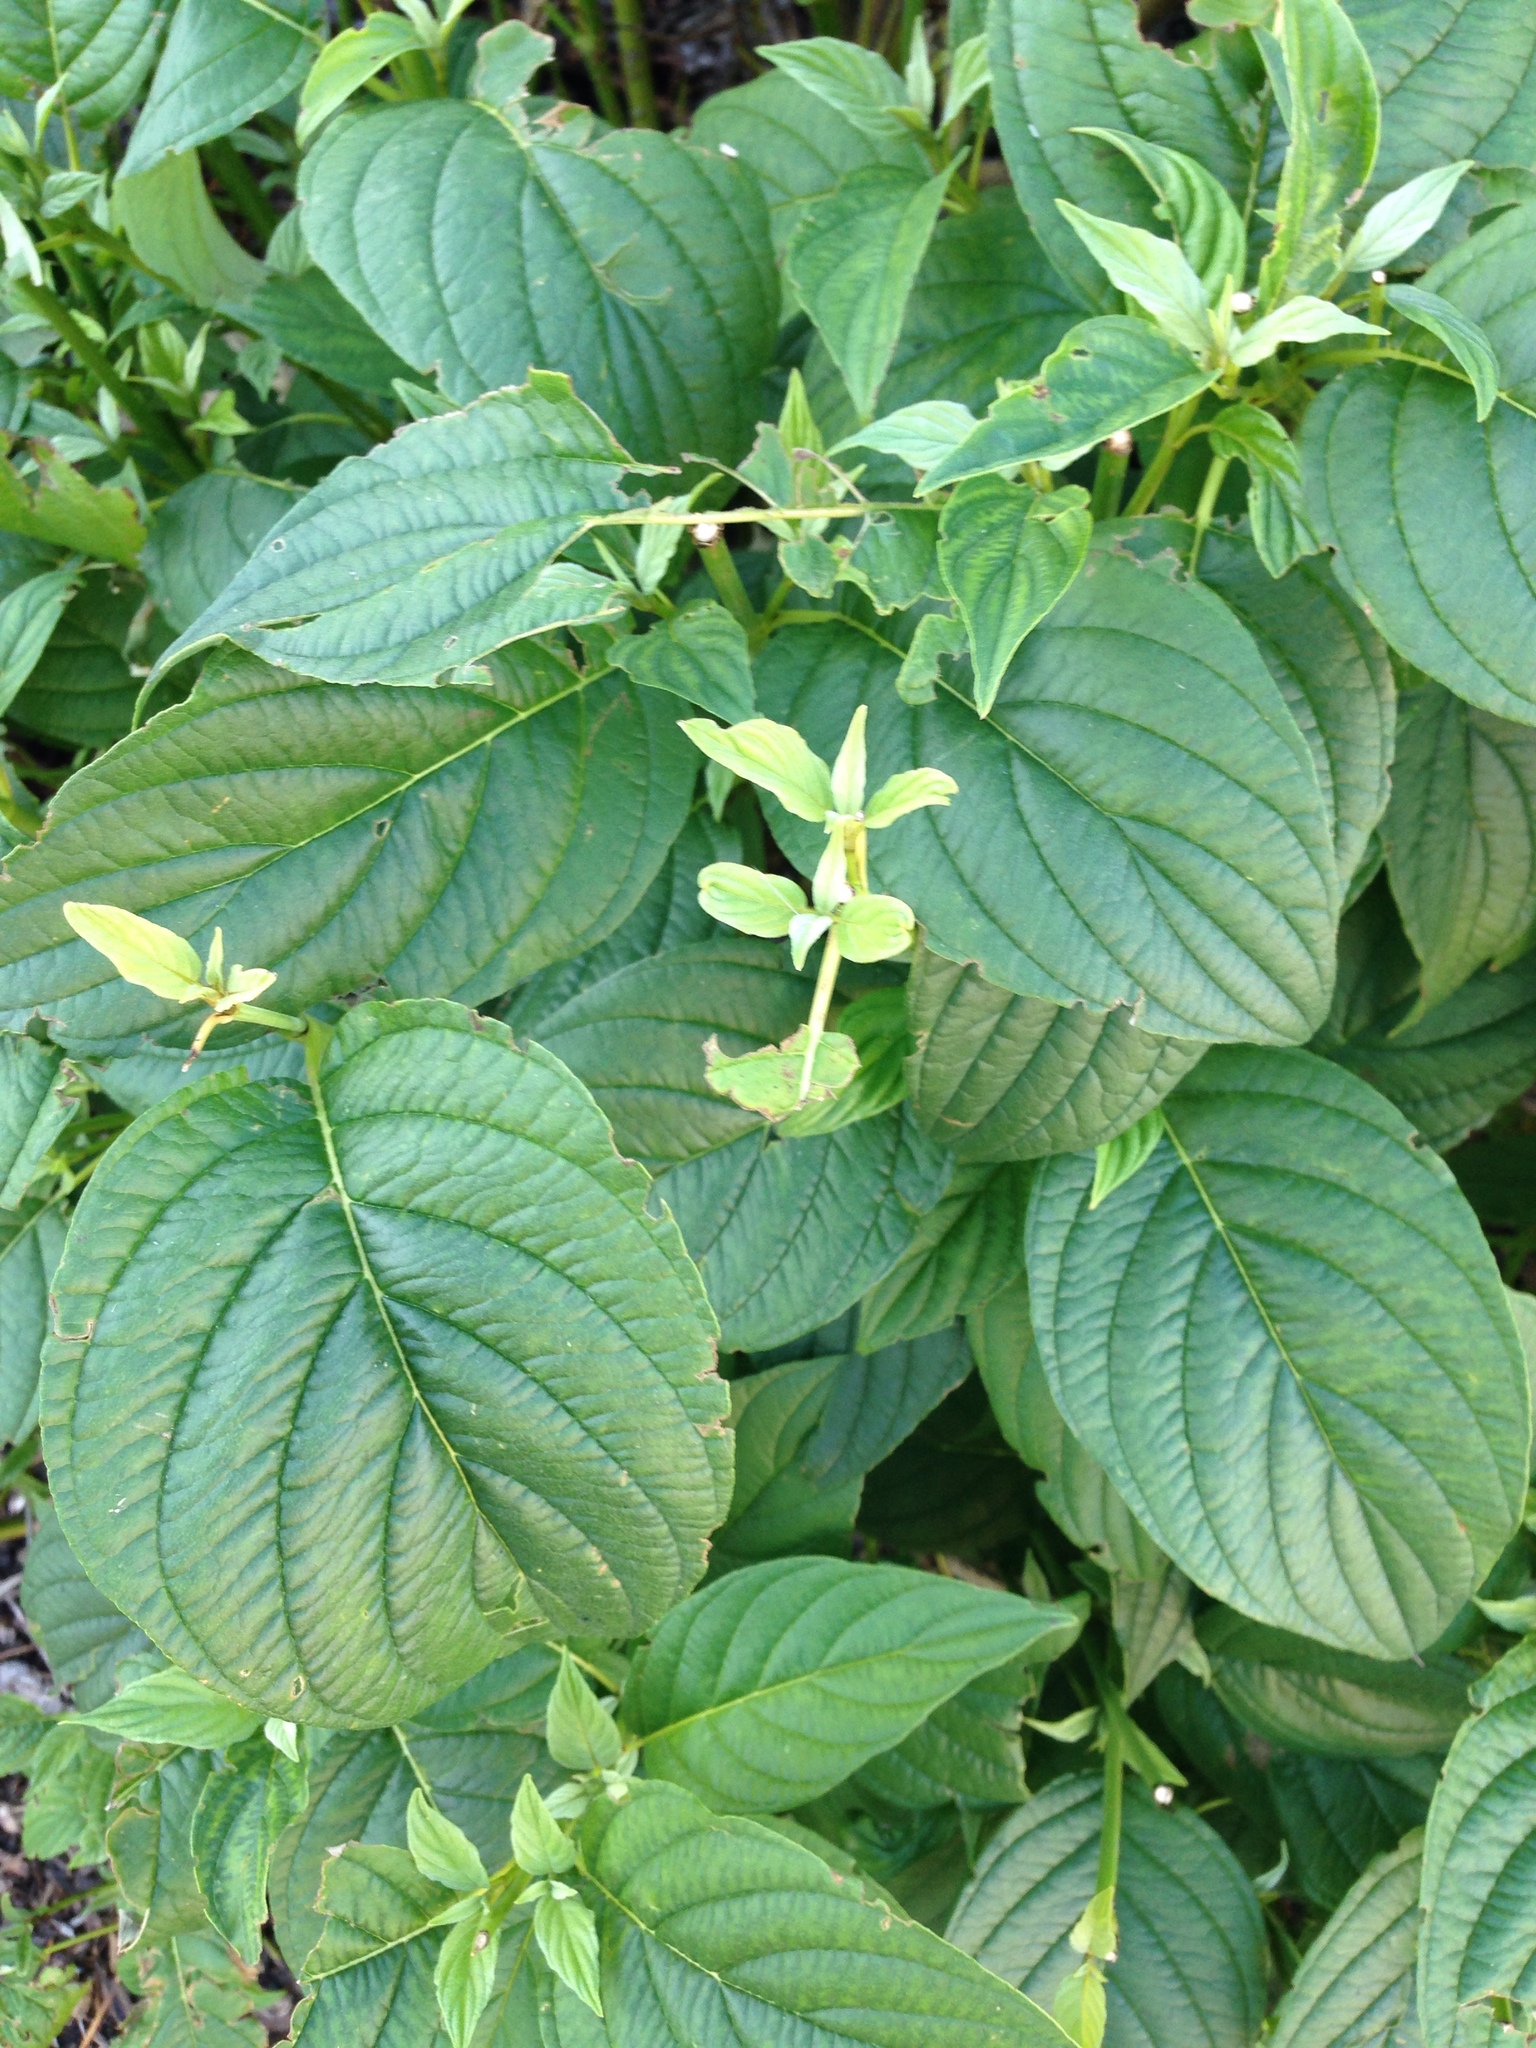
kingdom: Plantae
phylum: Tracheophyta
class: Magnoliopsida
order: Cornales
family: Cornaceae
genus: Cornus
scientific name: Cornus sanguinea
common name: Dogwood
